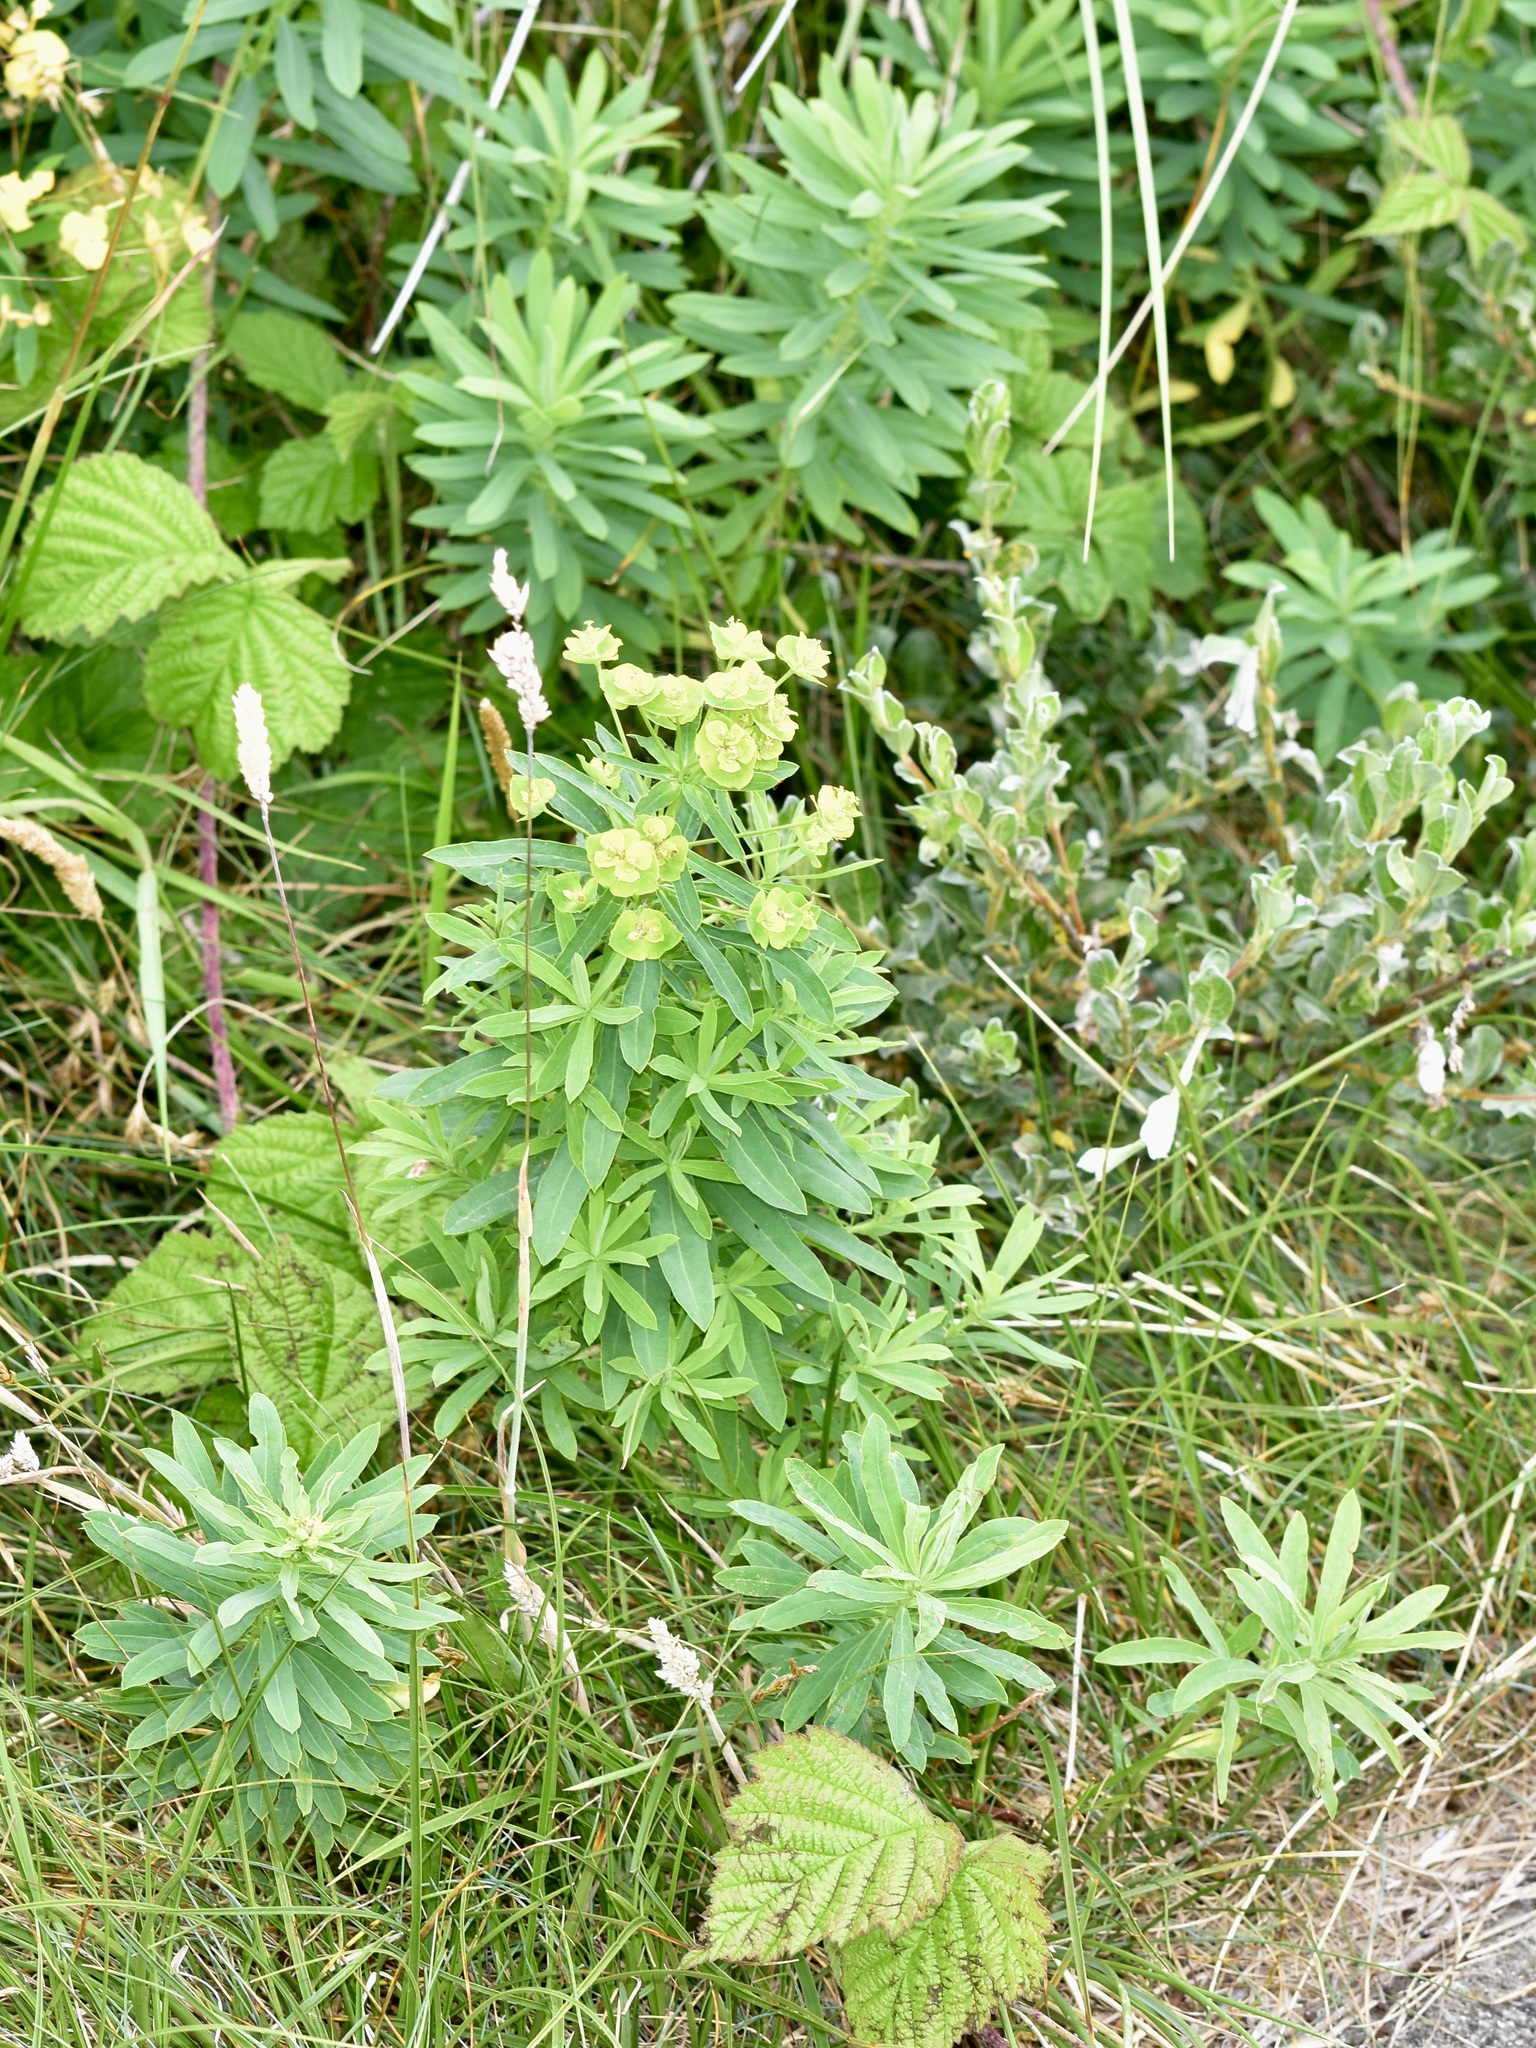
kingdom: Plantae
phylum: Tracheophyta
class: Magnoliopsida
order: Malpighiales
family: Euphorbiaceae
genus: Euphorbia
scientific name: Euphorbia esula
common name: Leafy spurge
